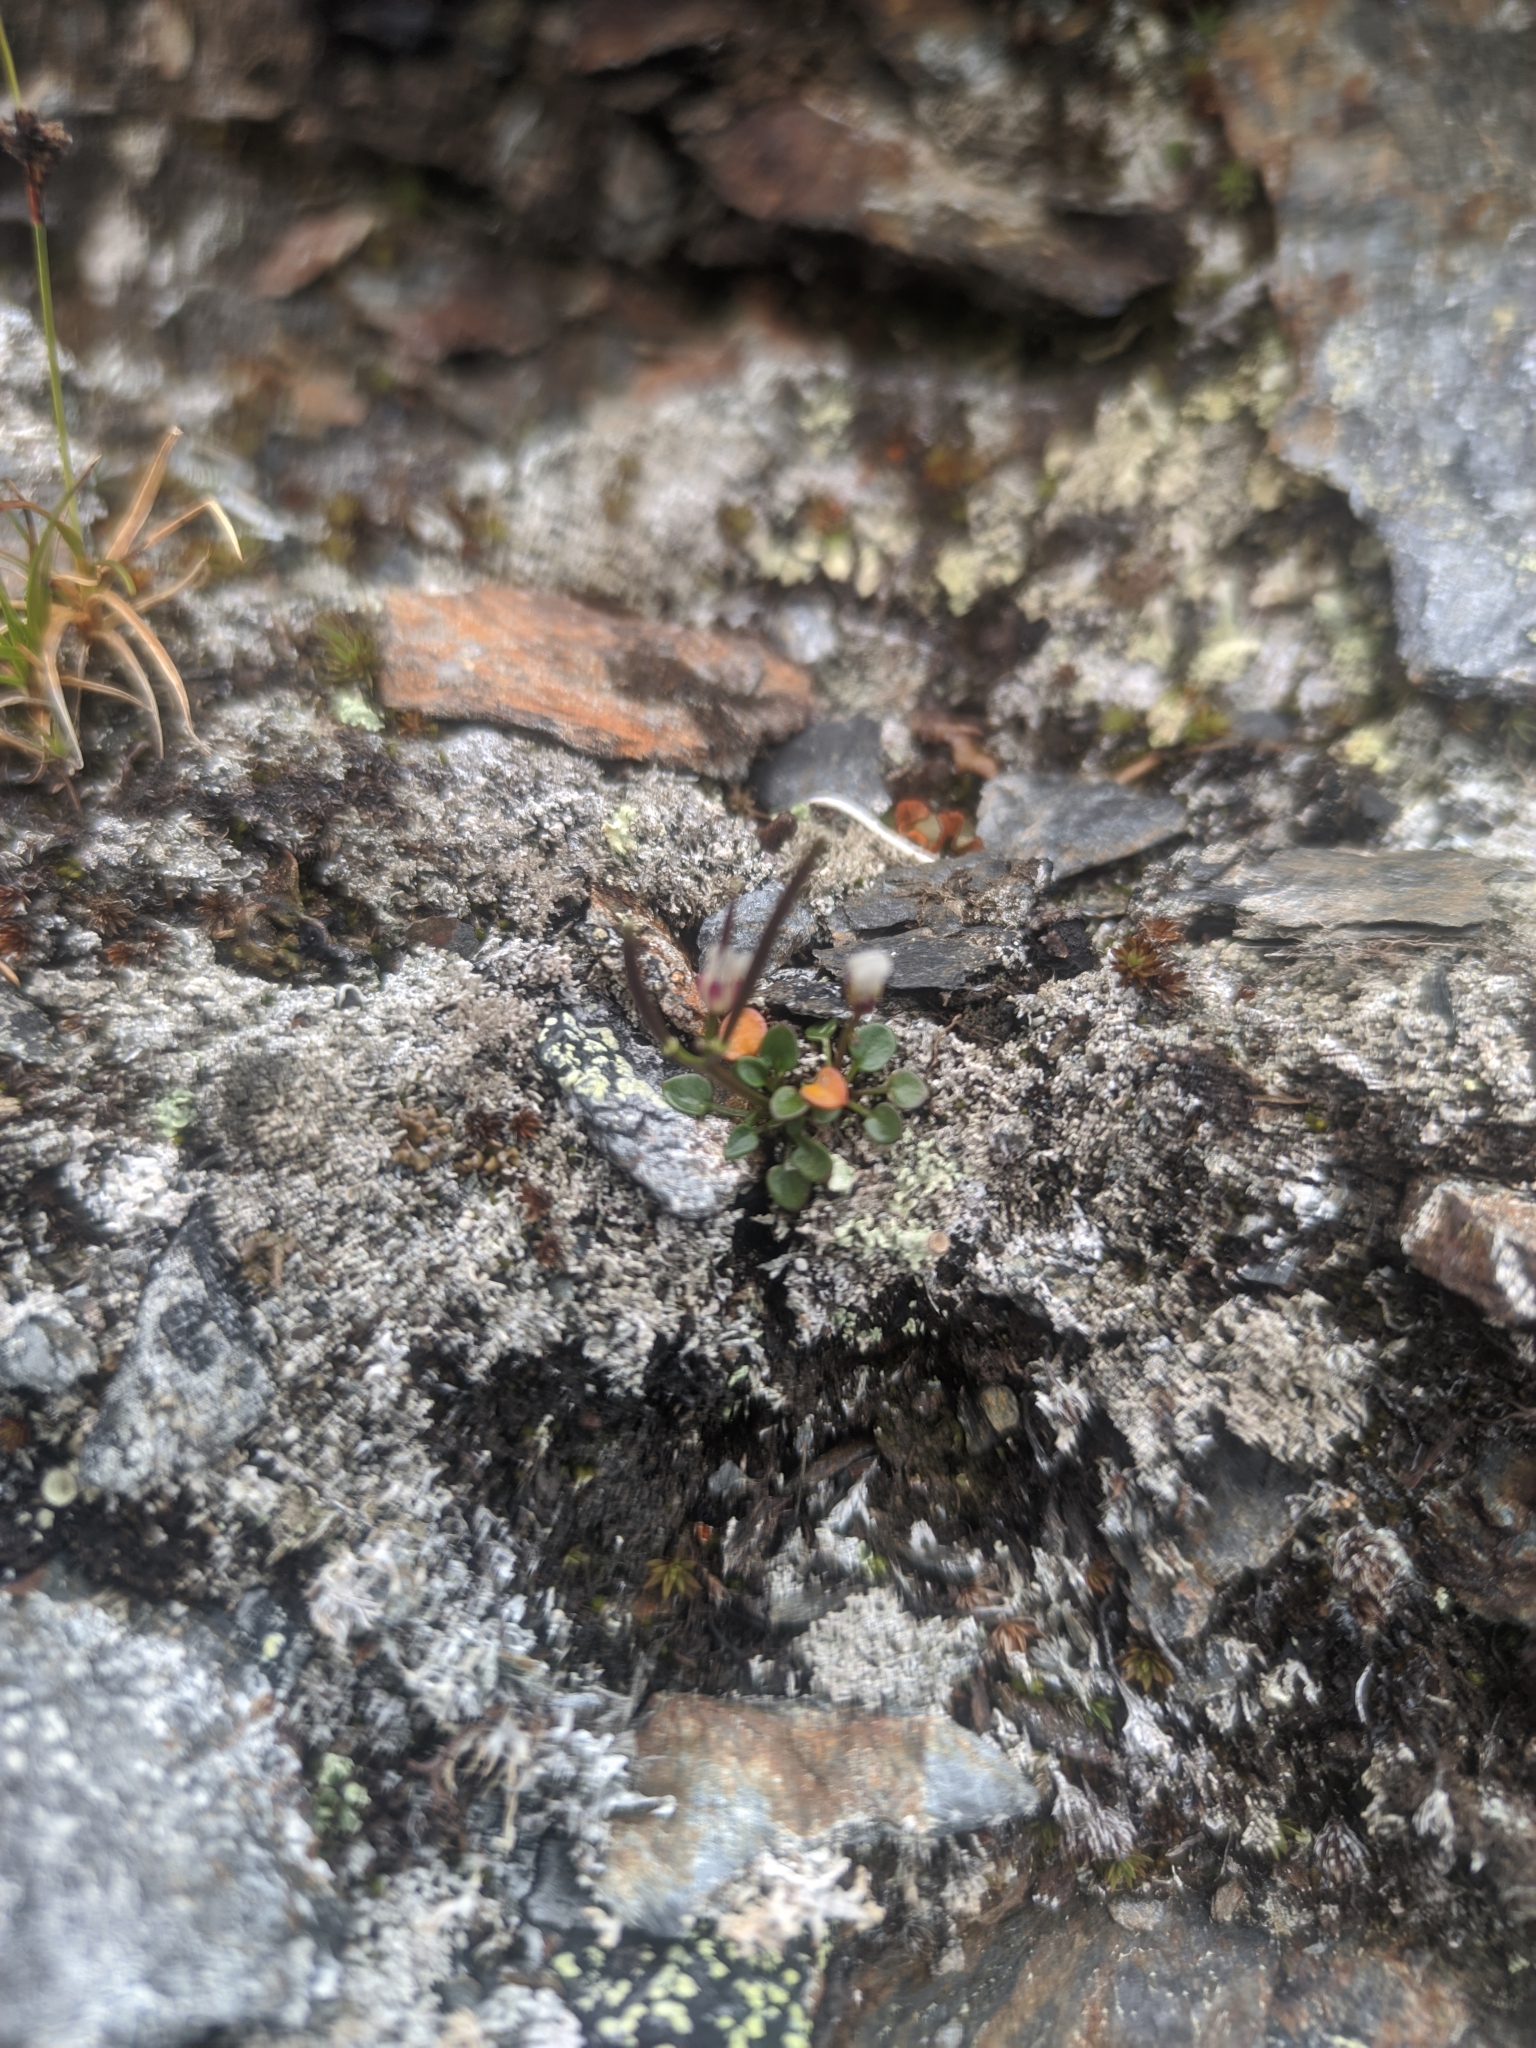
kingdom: Plantae
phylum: Tracheophyta
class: Magnoliopsida
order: Brassicales
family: Brassicaceae
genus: Cardamine
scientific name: Cardamine bellidifolia
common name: Alpine bittercress
